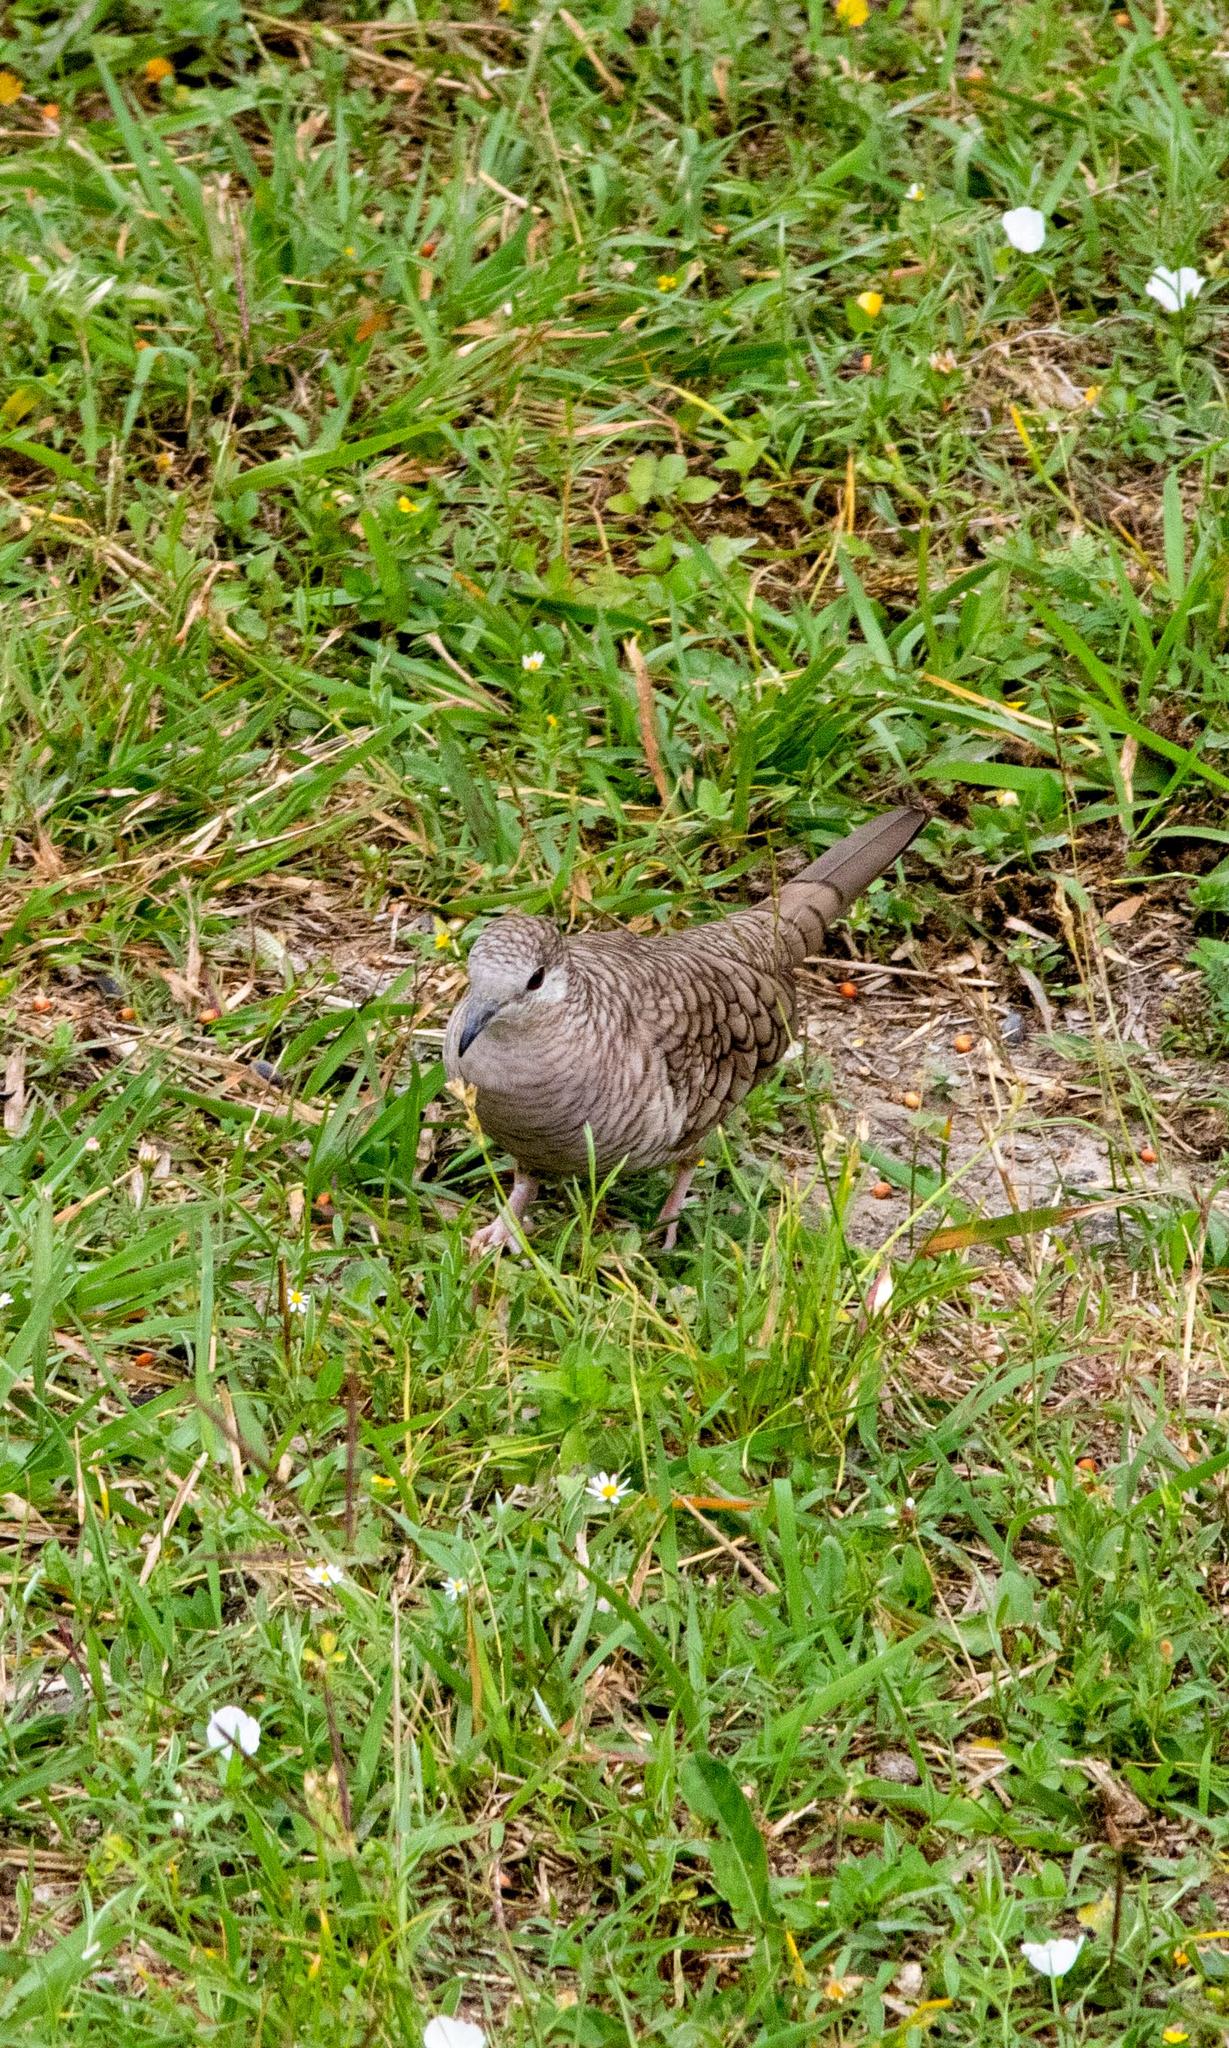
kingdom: Animalia
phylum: Chordata
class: Aves
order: Columbiformes
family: Columbidae
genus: Columbina
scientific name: Columbina inca
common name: Inca dove
